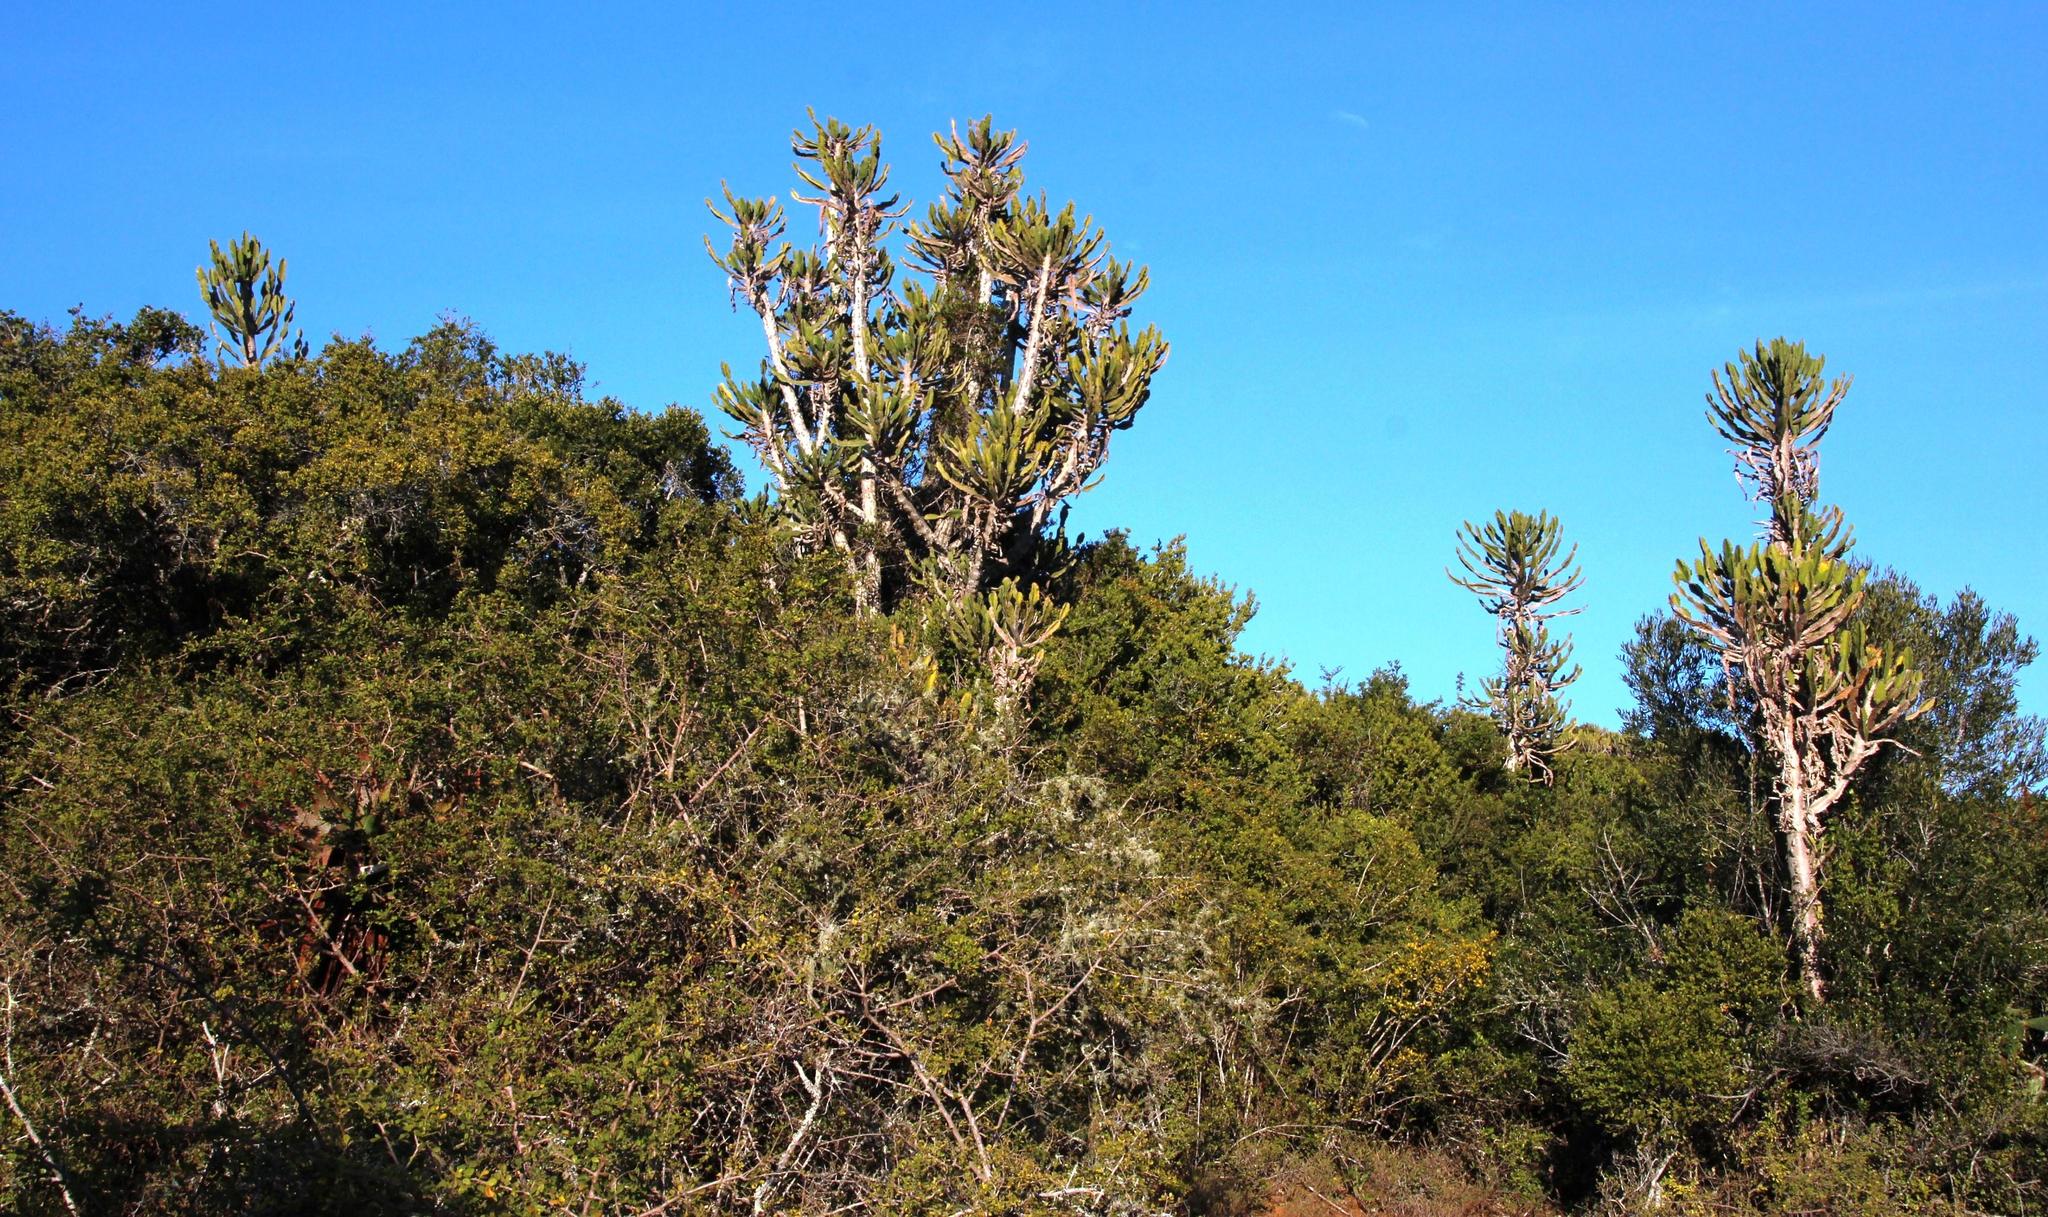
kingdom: Plantae
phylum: Tracheophyta
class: Magnoliopsida
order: Malpighiales
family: Euphorbiaceae
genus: Euphorbia
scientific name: Euphorbia triangularis
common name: Chandelier tree
